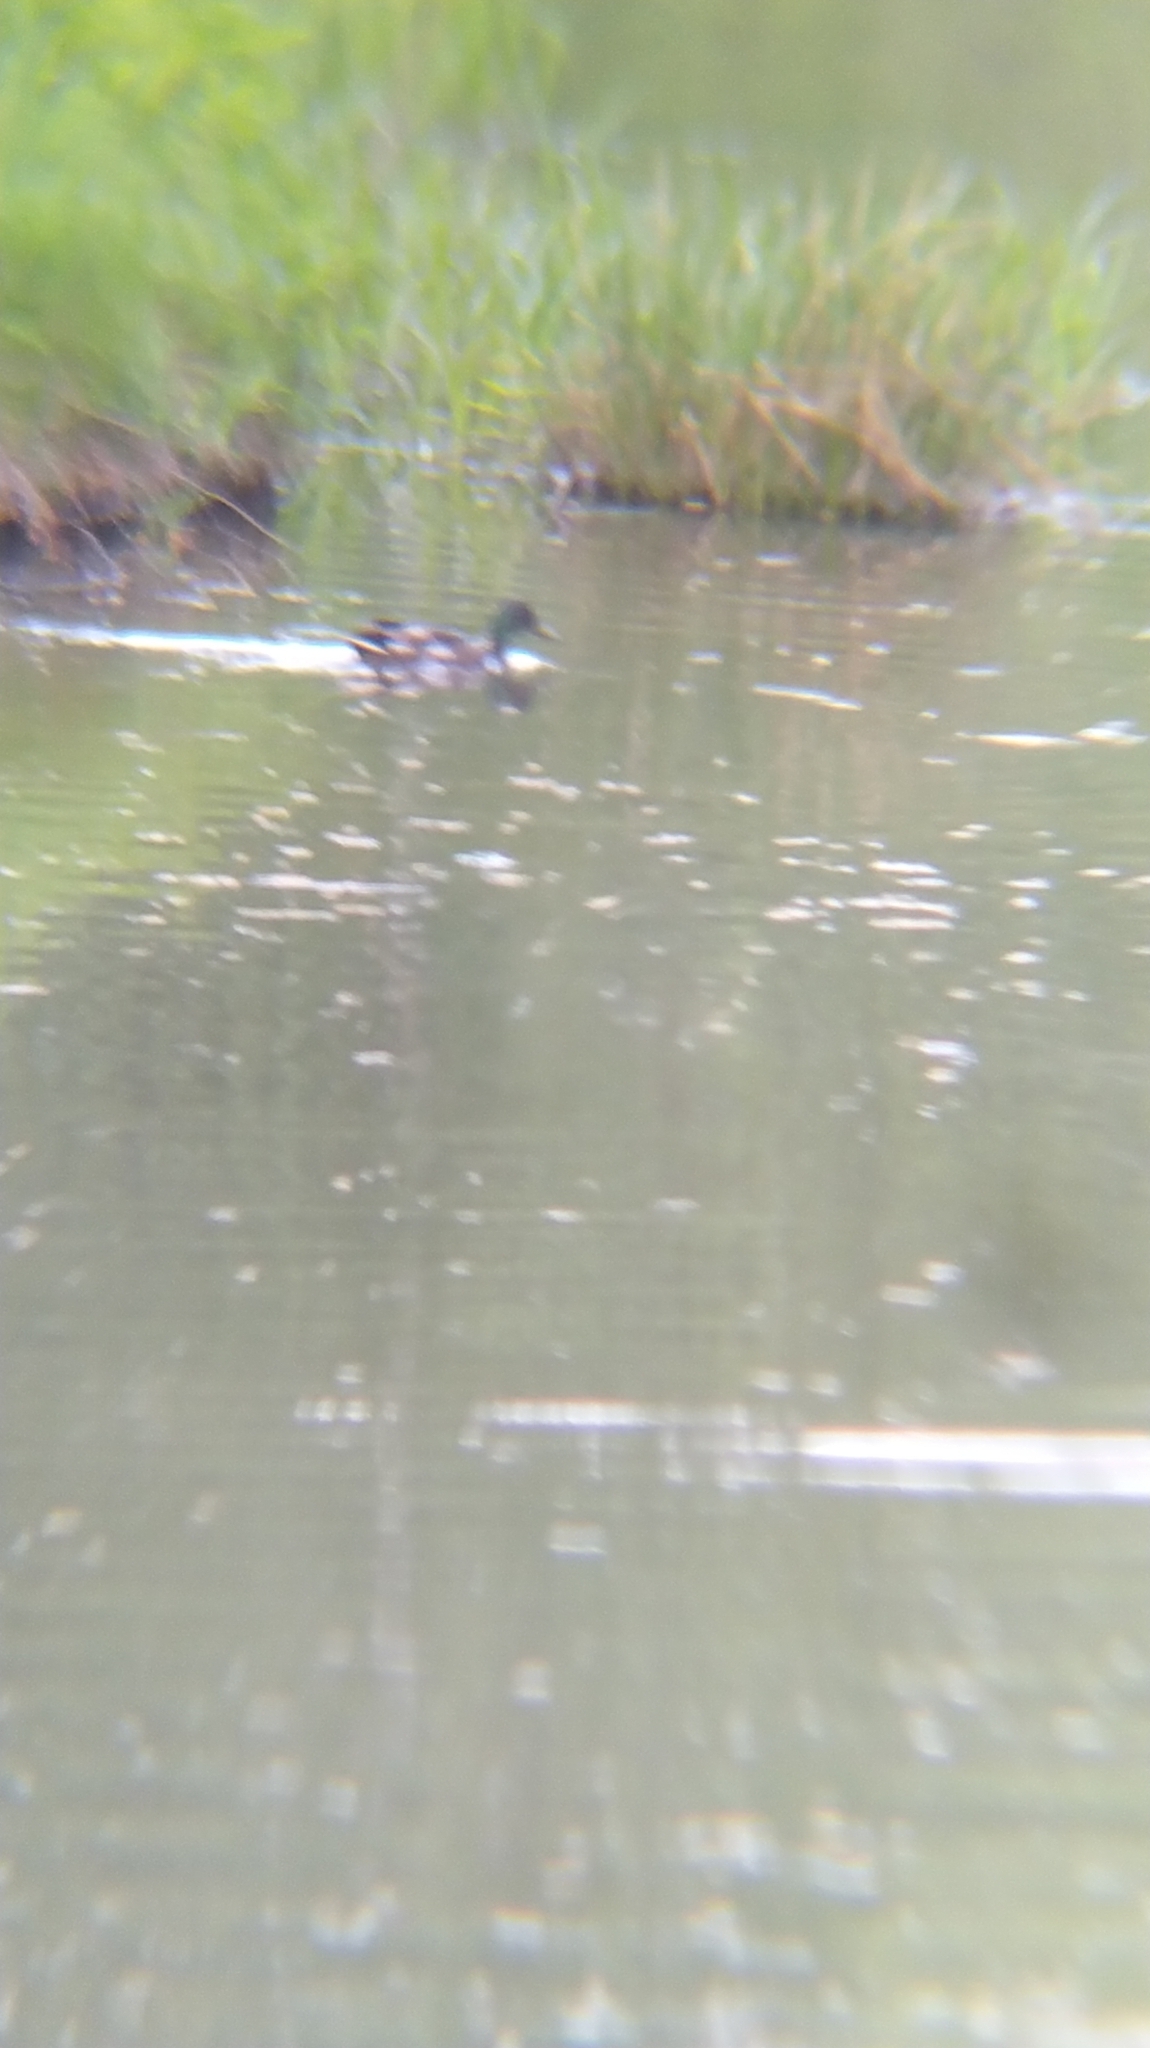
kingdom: Animalia
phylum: Chordata
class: Aves
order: Anseriformes
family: Anatidae
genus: Anas
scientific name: Anas platyrhynchos
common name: Mallard
